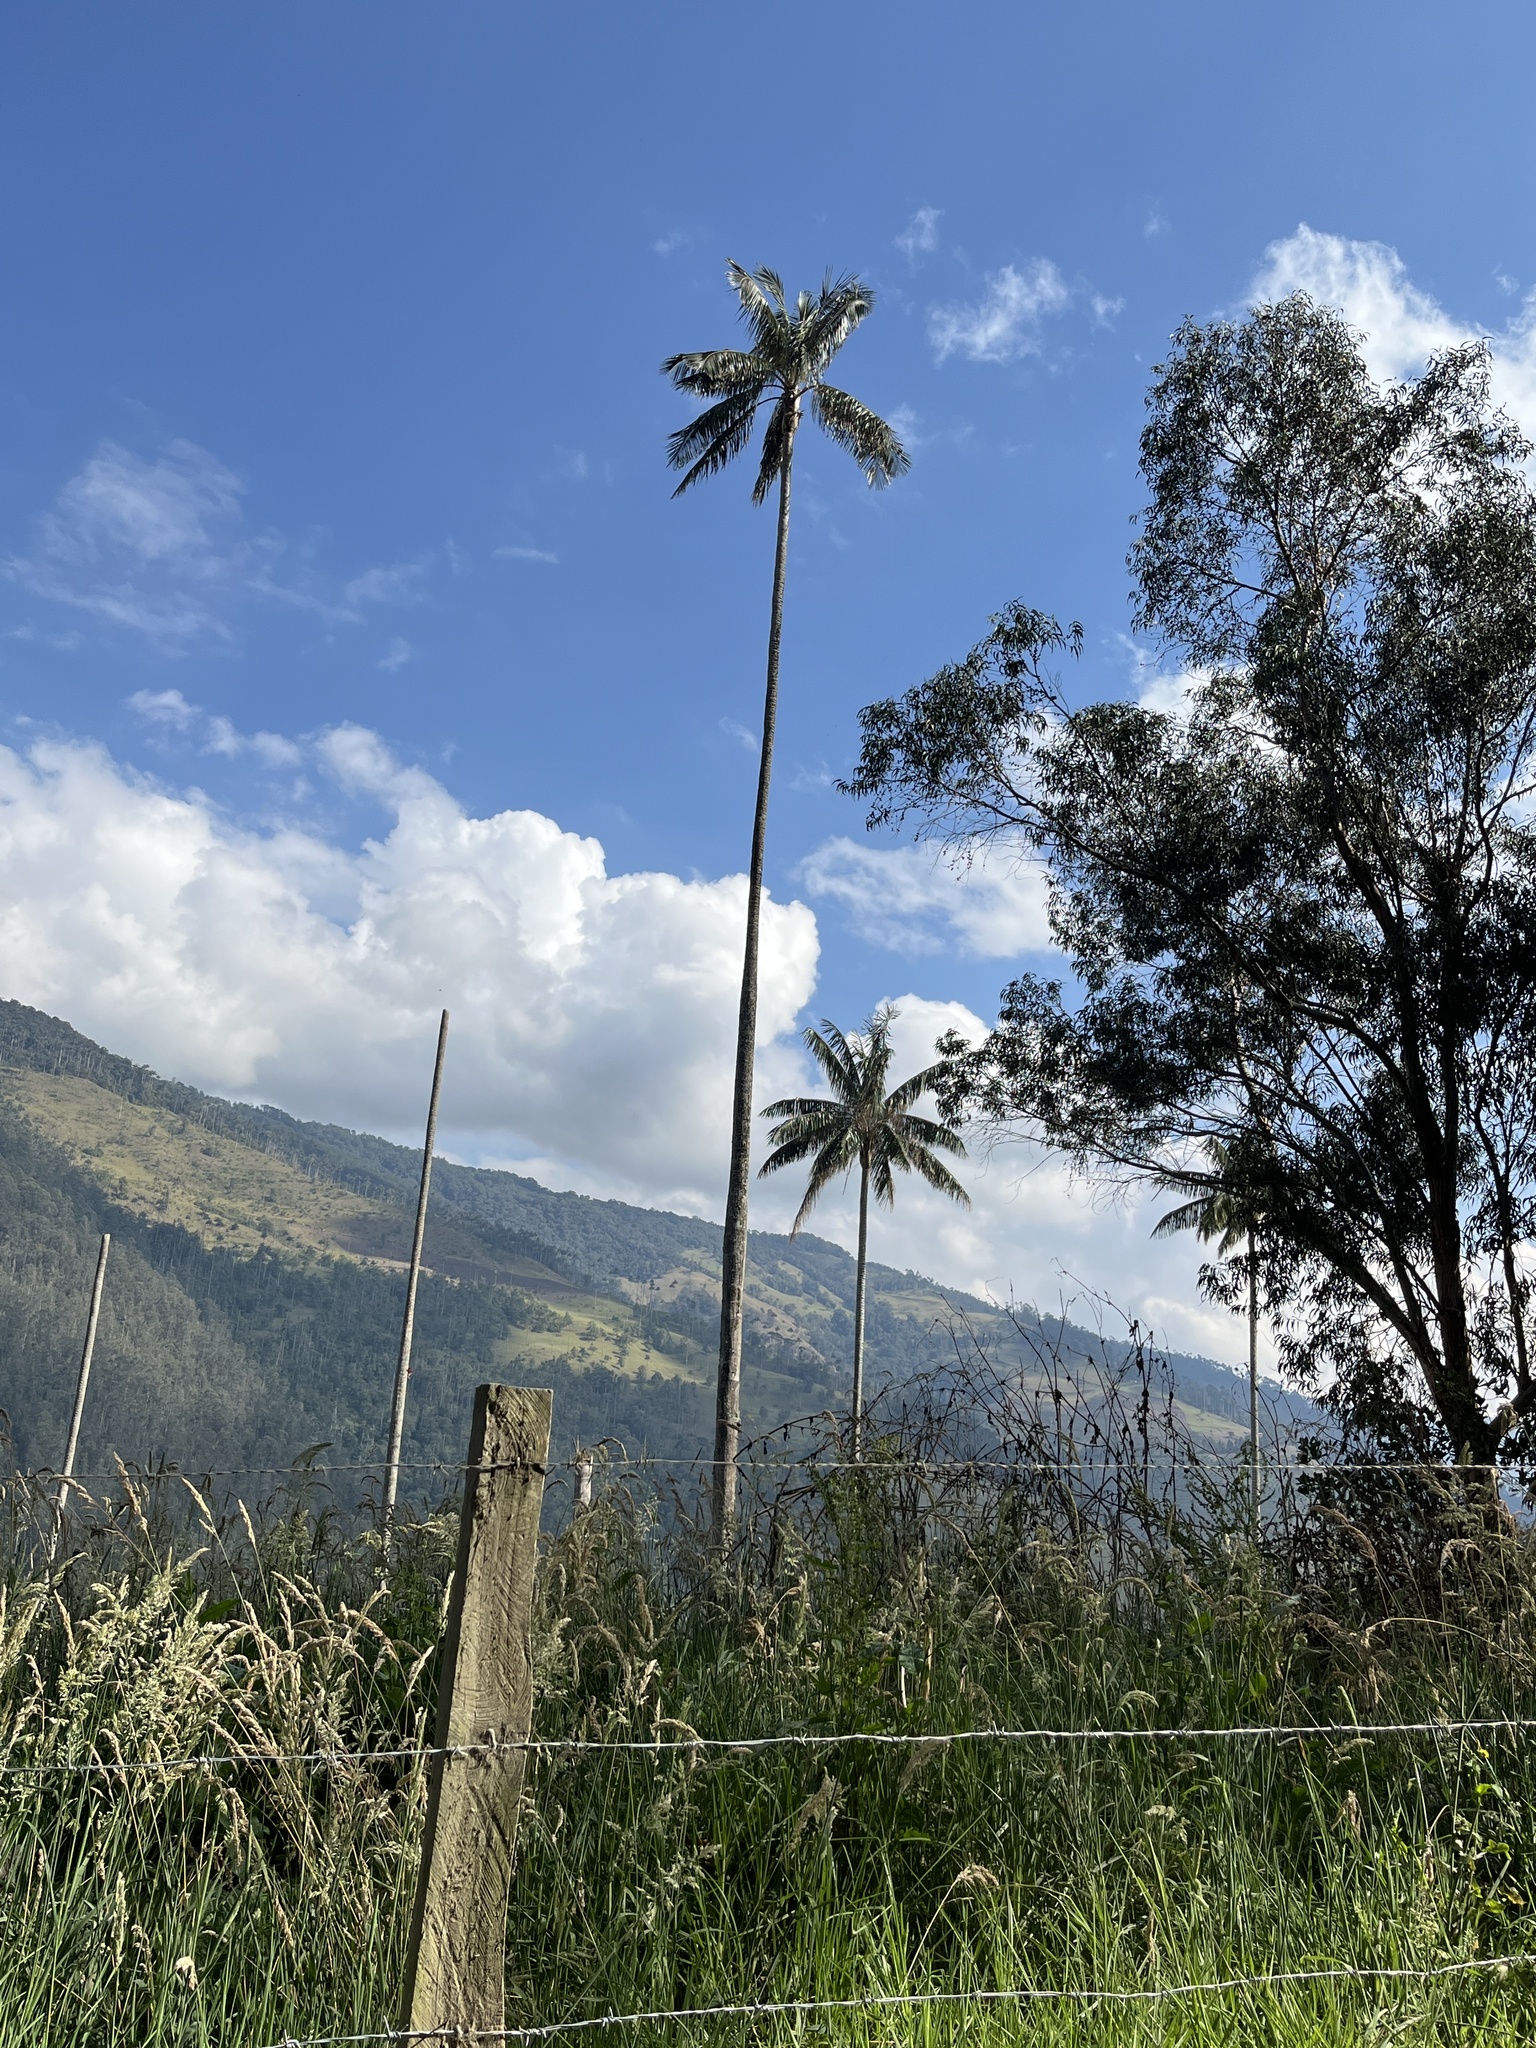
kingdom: Plantae
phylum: Tracheophyta
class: Liliopsida
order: Arecales
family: Arecaceae
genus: Ceroxylon
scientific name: Ceroxylon quindiuense
